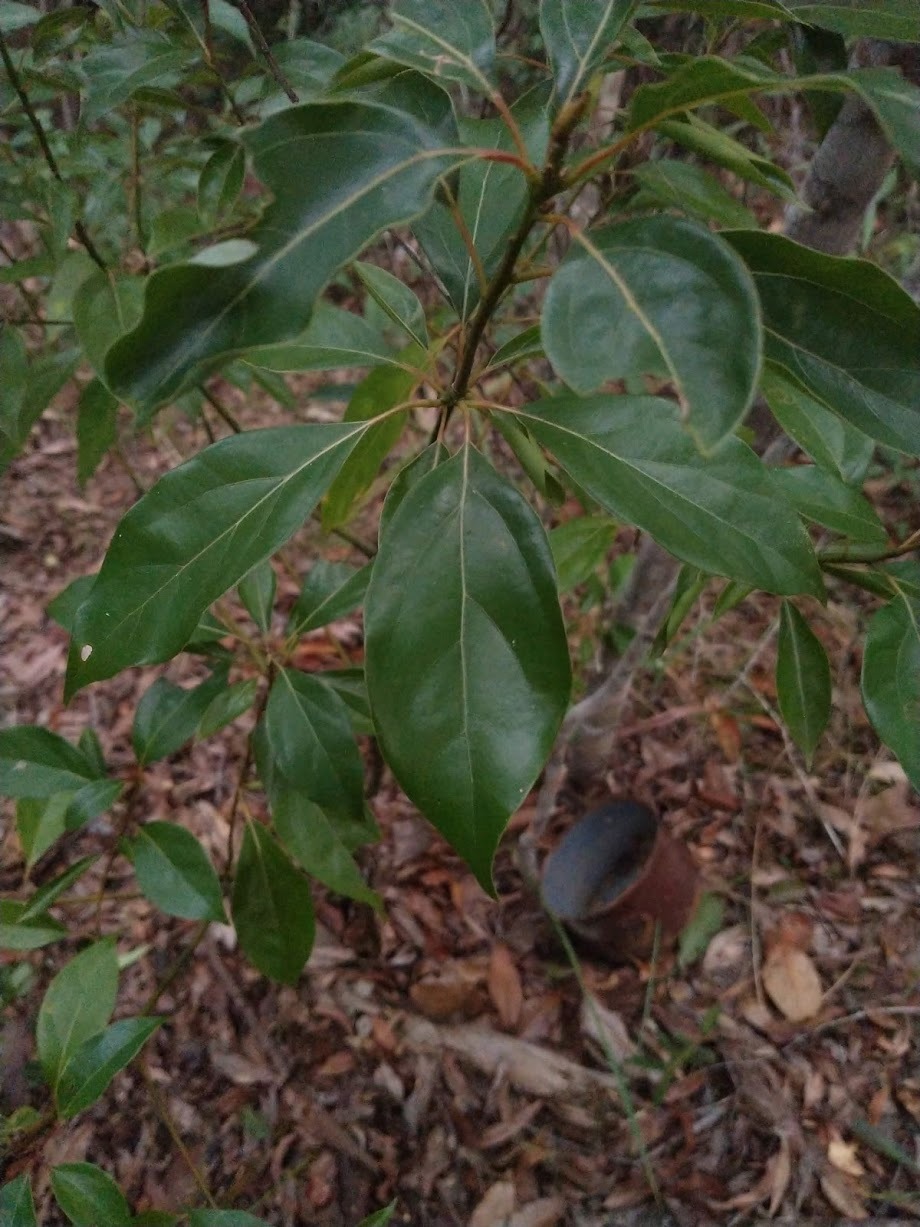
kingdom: Plantae
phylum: Tracheophyta
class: Magnoliopsida
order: Laurales
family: Lauraceae
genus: Cinnamomum
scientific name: Cinnamomum camphora
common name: Camphortree
